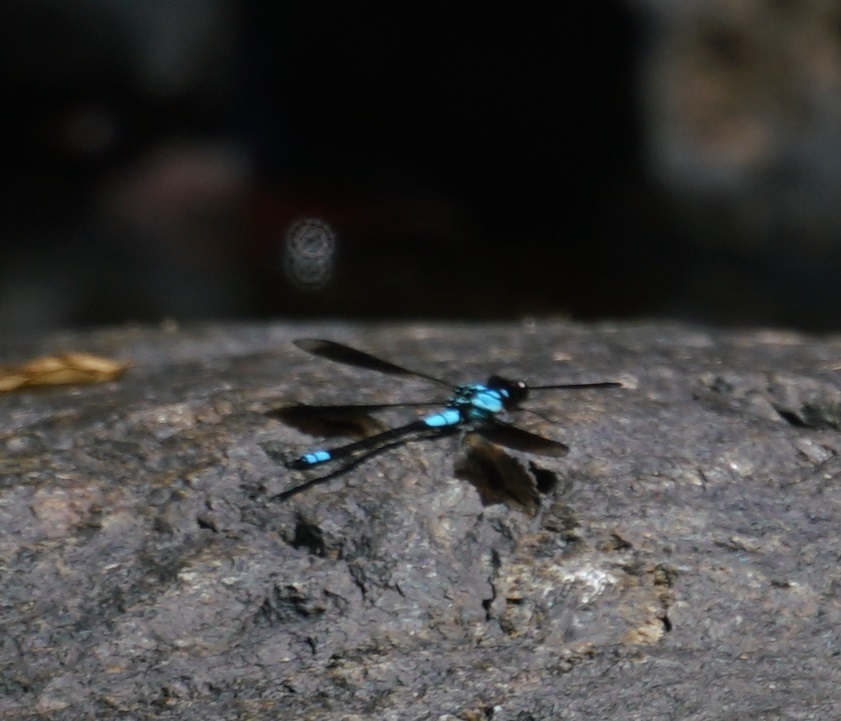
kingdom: Animalia
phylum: Arthropoda
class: Insecta
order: Odonata
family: Lestoideidae
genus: Diphlebia
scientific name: Diphlebia euphoeoides
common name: Tropical rockmaster
